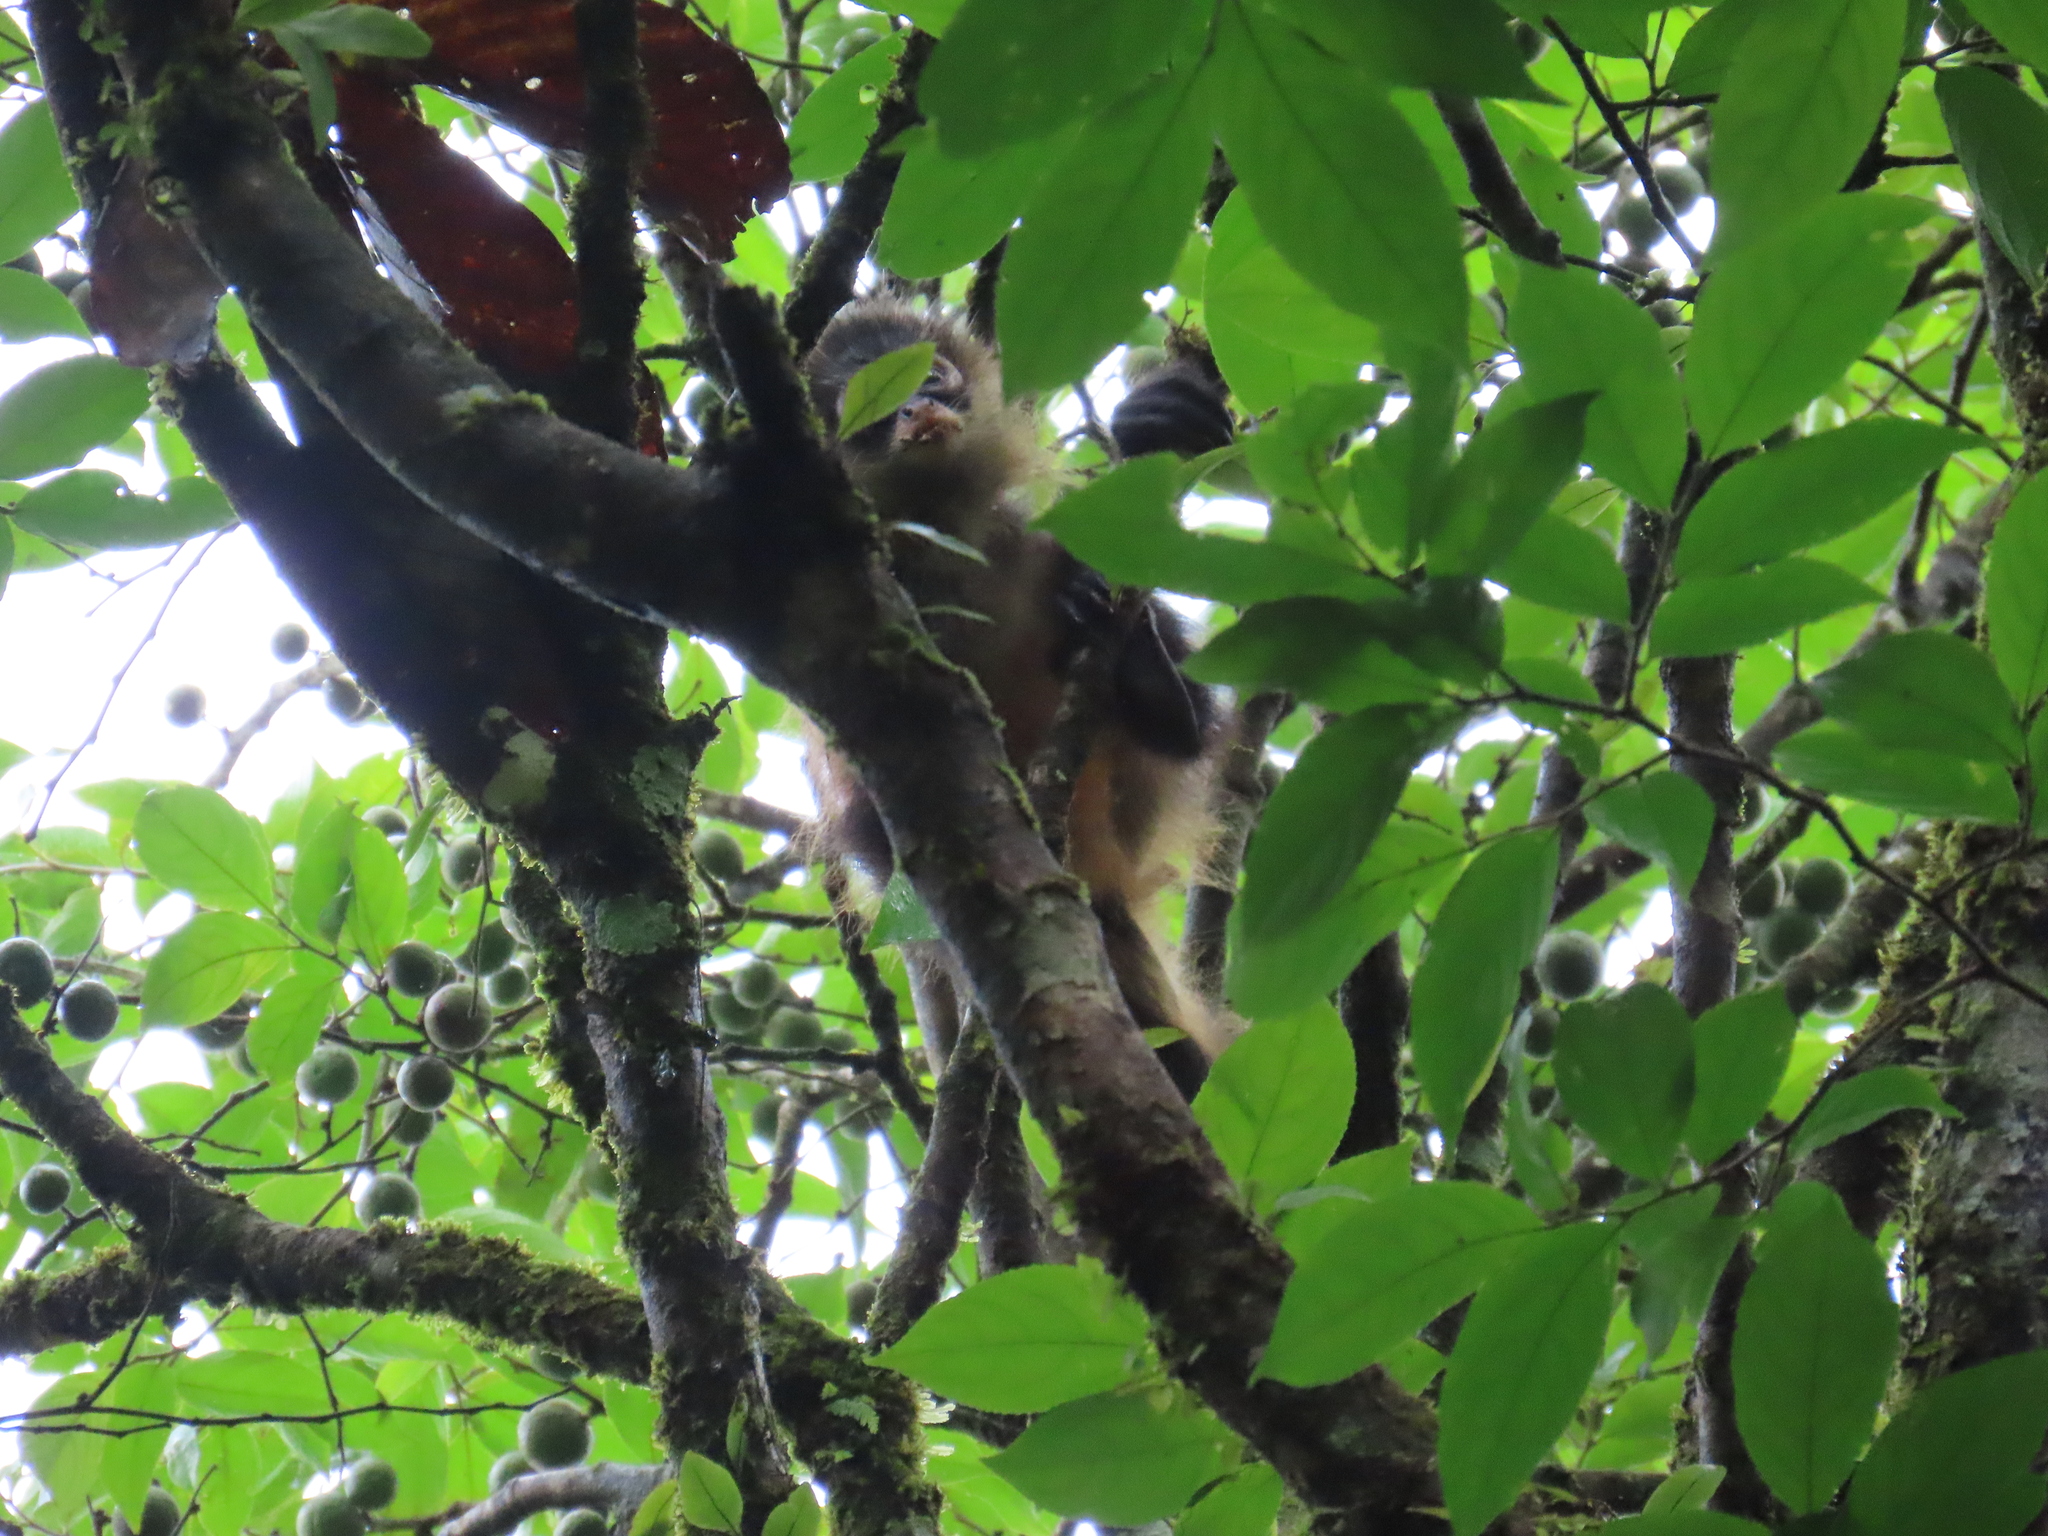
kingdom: Animalia
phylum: Chordata
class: Mammalia
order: Primates
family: Atelidae
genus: Ateles
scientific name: Ateles geoffroyi
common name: Black-handed spider monkey
